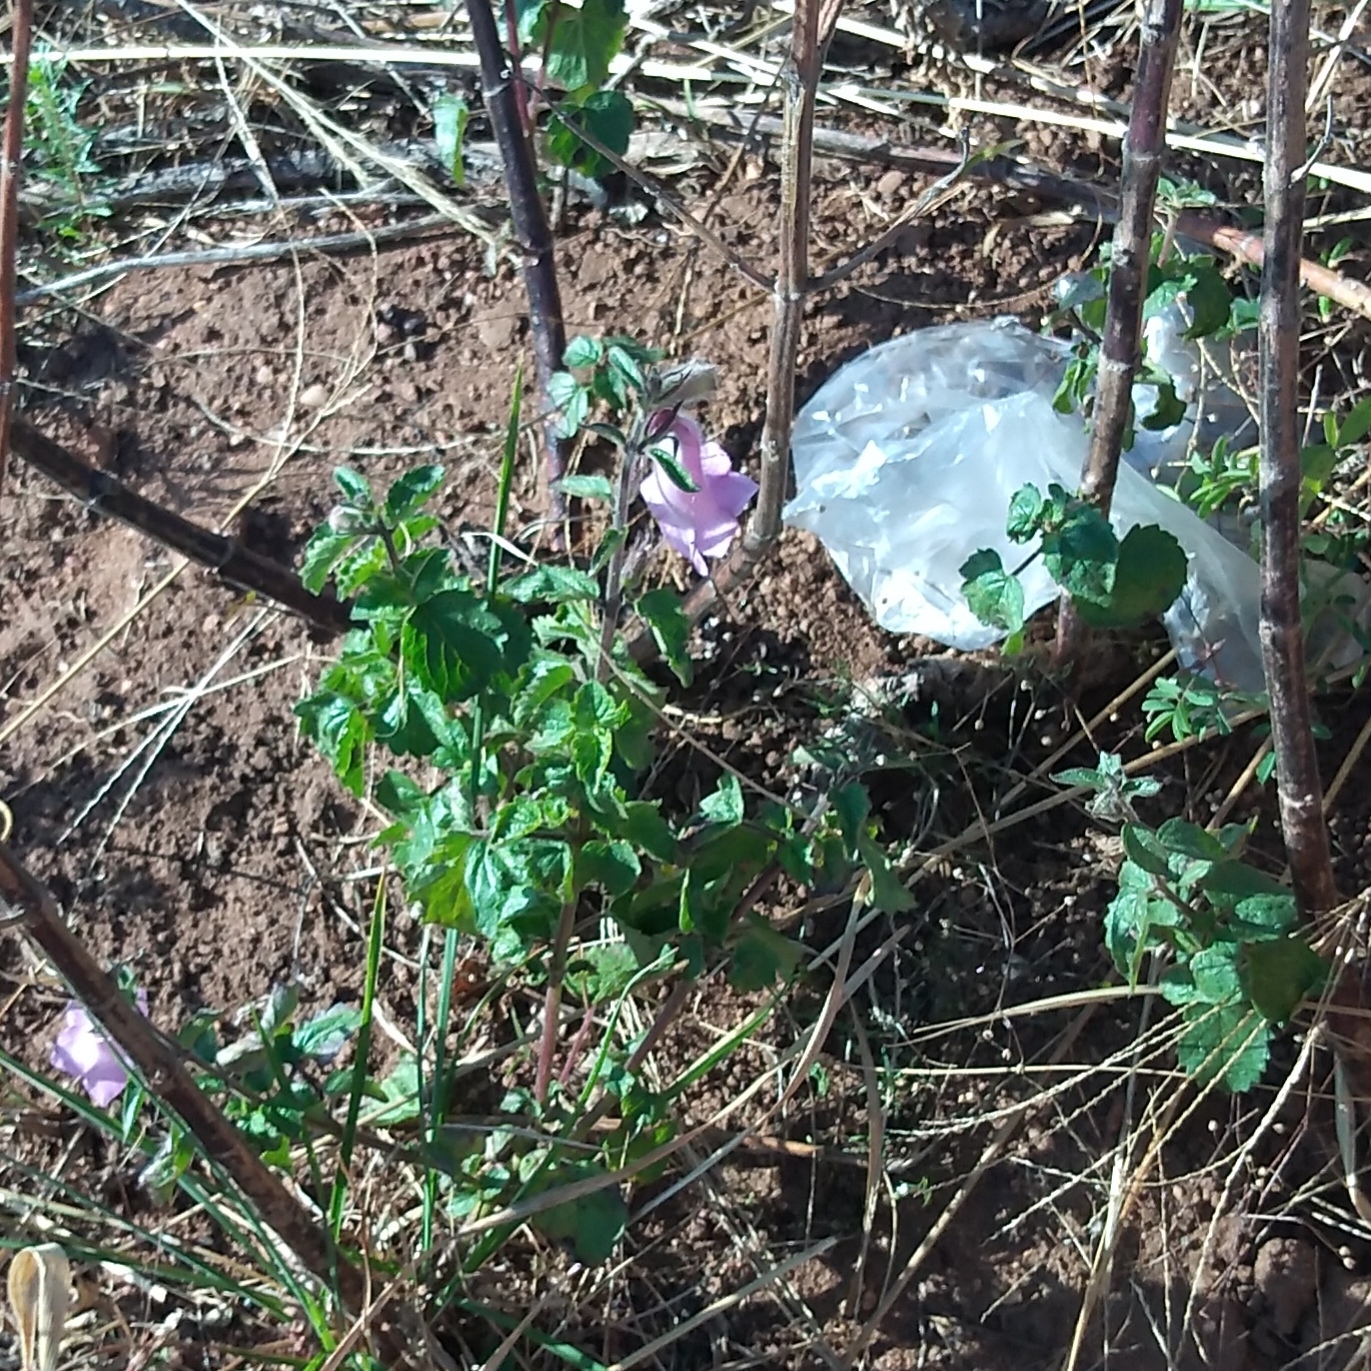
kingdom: Plantae
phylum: Tracheophyta
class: Magnoliopsida
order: Lamiales
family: Pedaliaceae
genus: Sesamum
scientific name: Sesamum trilobum
